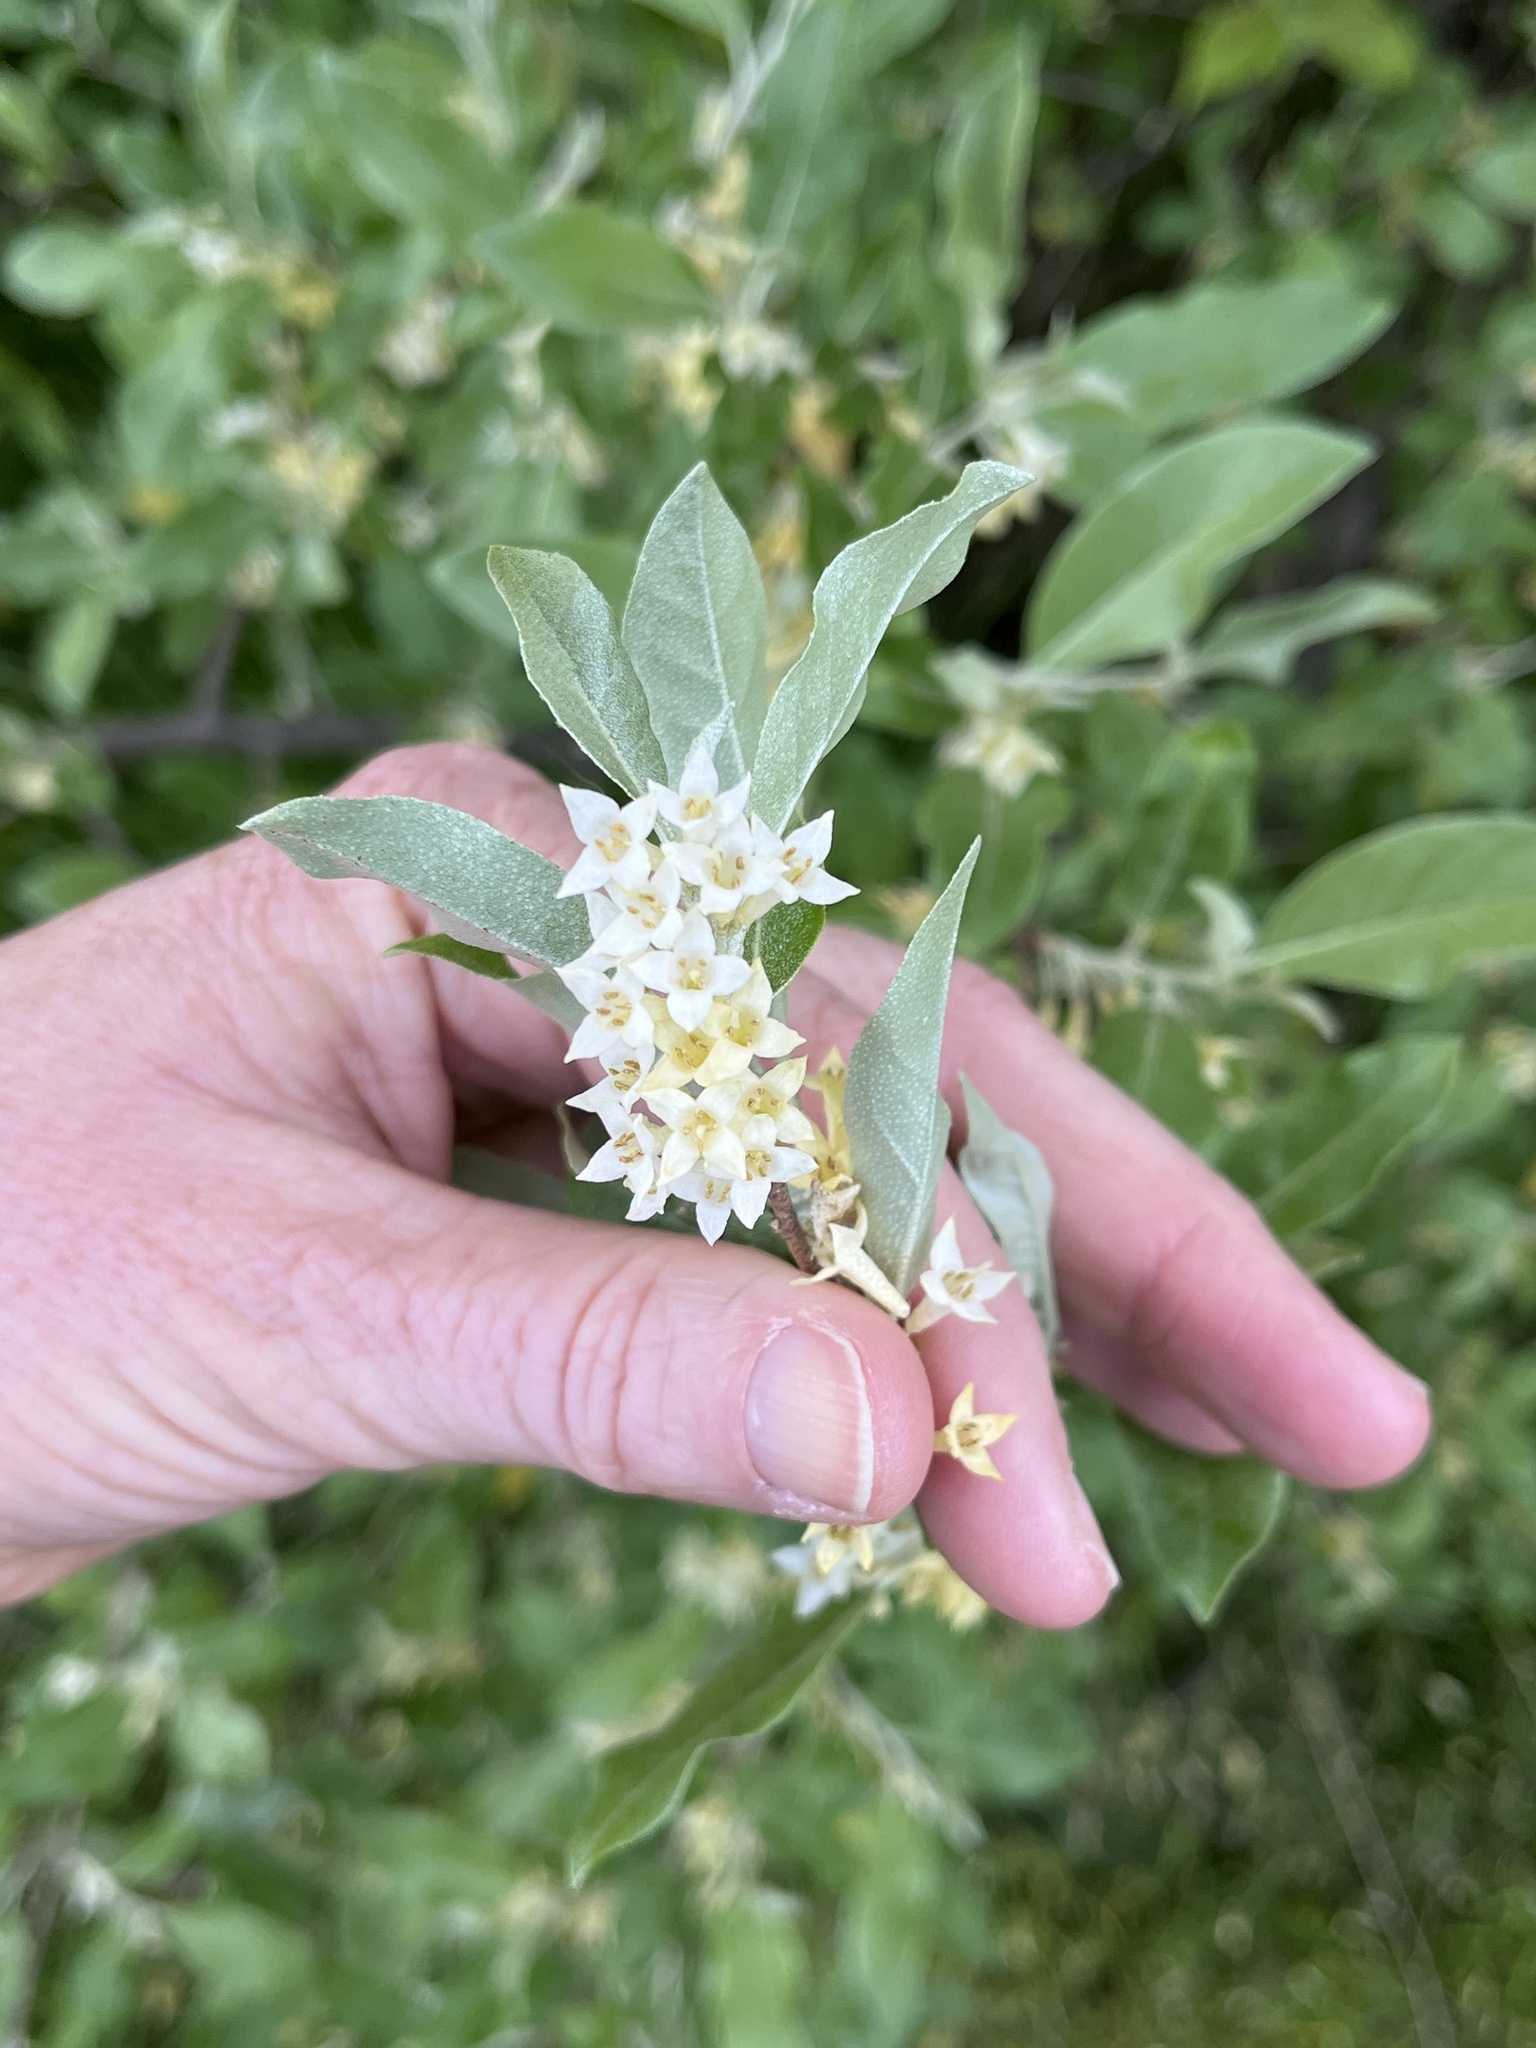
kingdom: Plantae
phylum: Tracheophyta
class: Magnoliopsida
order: Rosales
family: Elaeagnaceae
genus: Elaeagnus
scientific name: Elaeagnus umbellata
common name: Autumn olive
